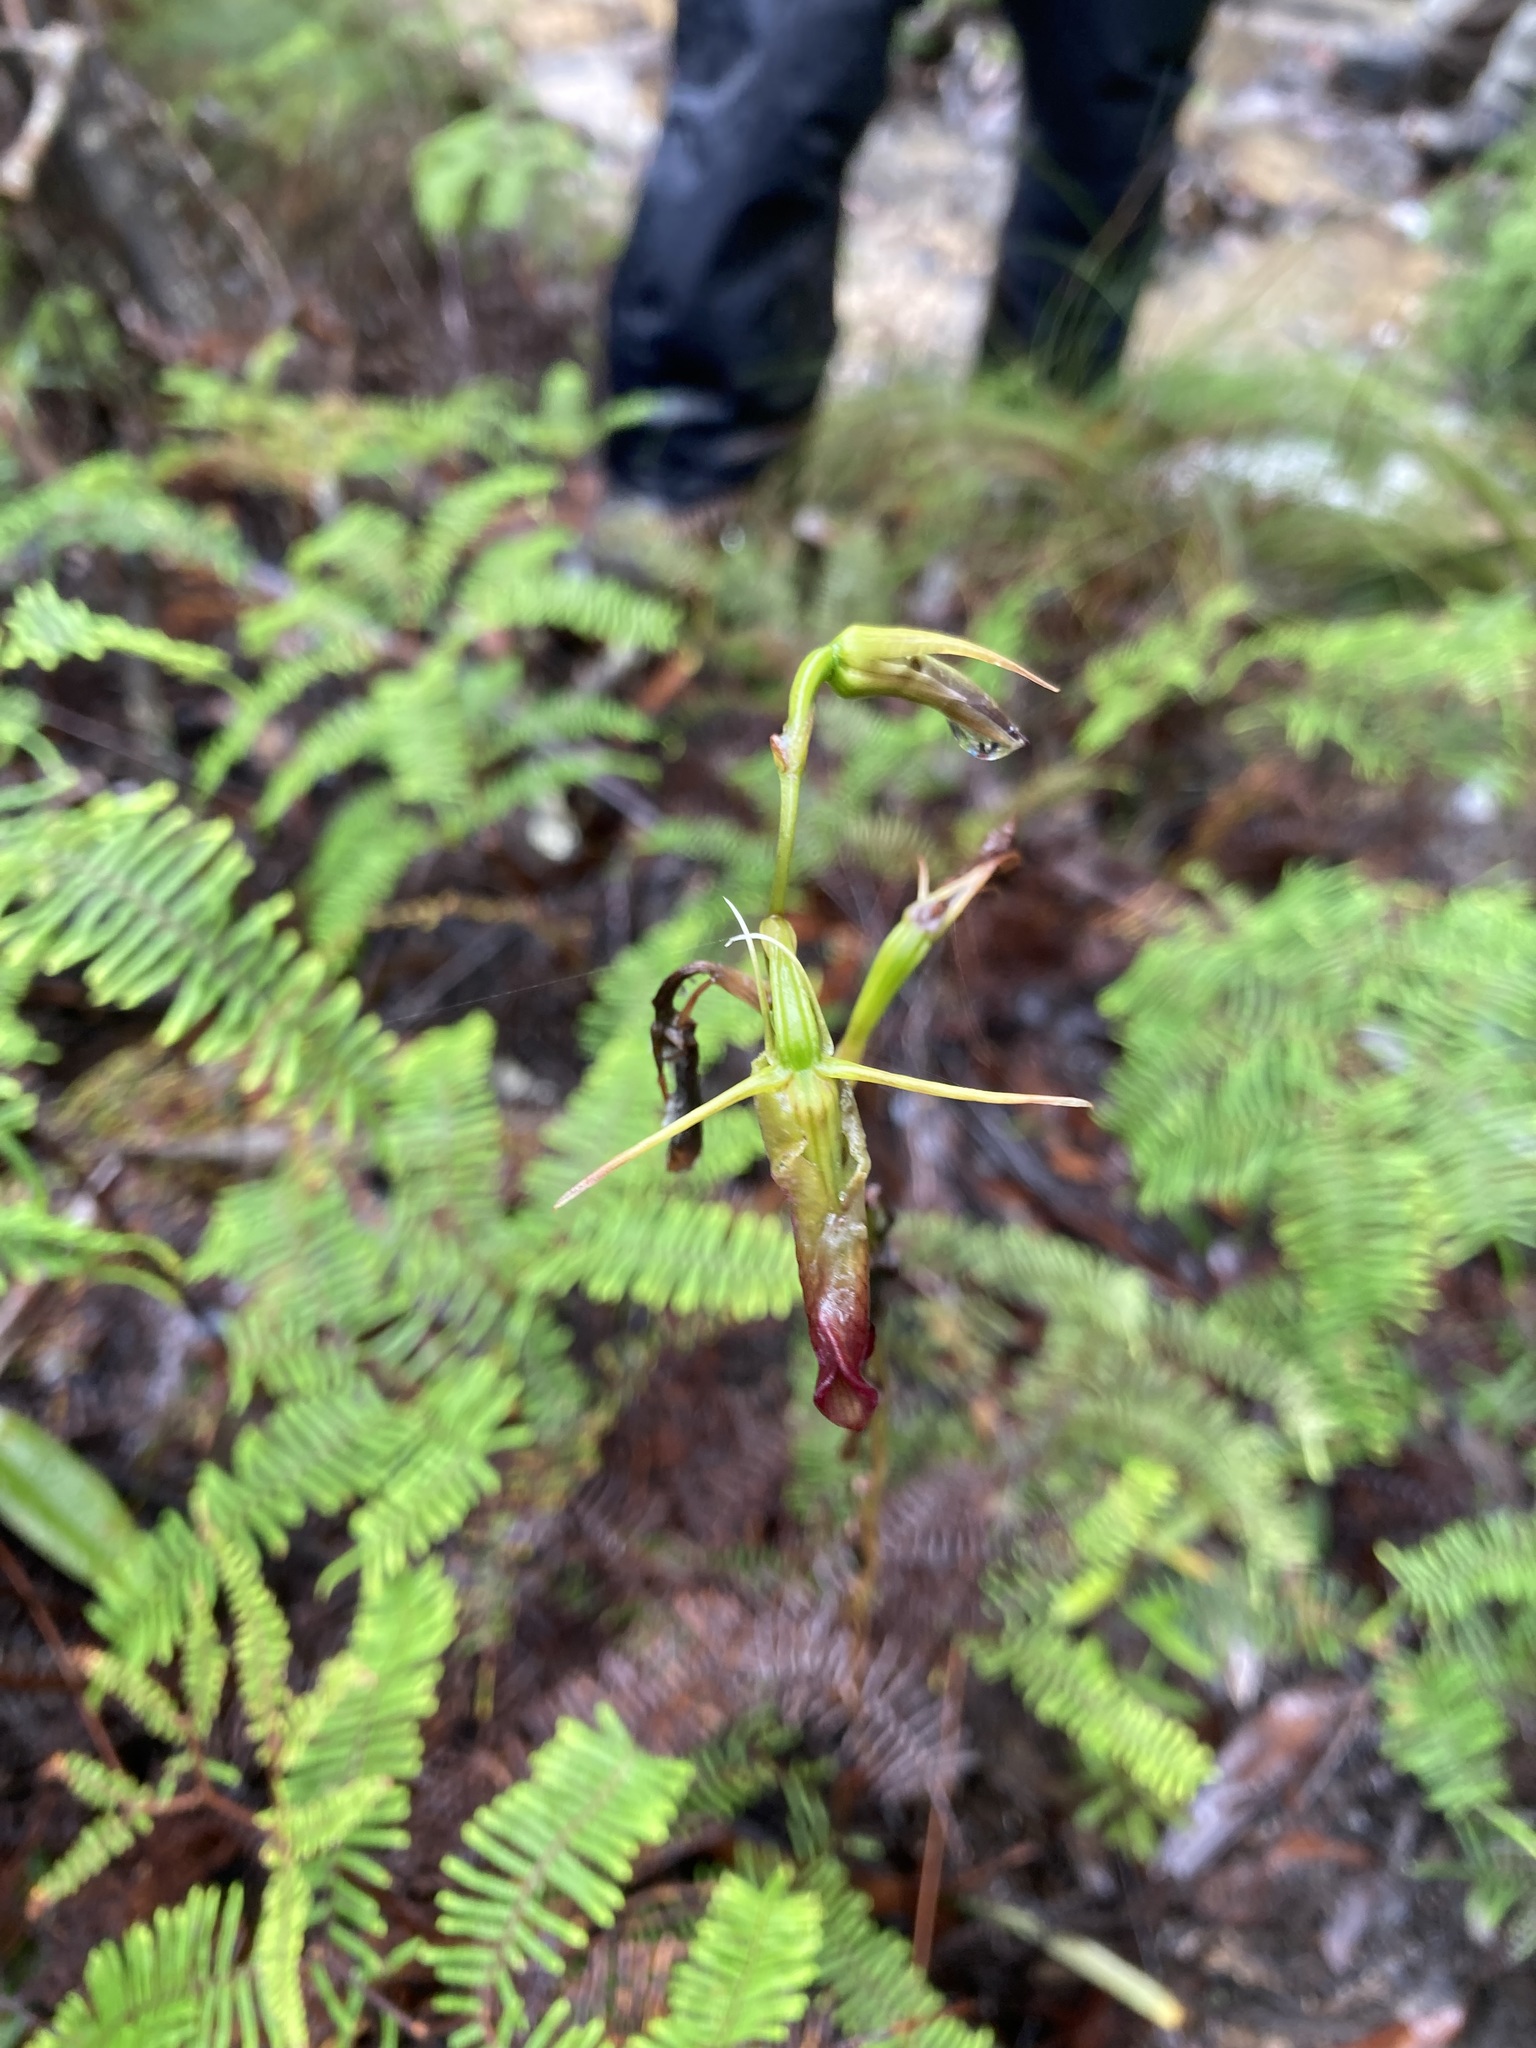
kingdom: Plantae
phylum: Tracheophyta
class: Liliopsida
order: Asparagales
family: Orchidaceae
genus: Cryptostylis
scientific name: Cryptostylis subulata
